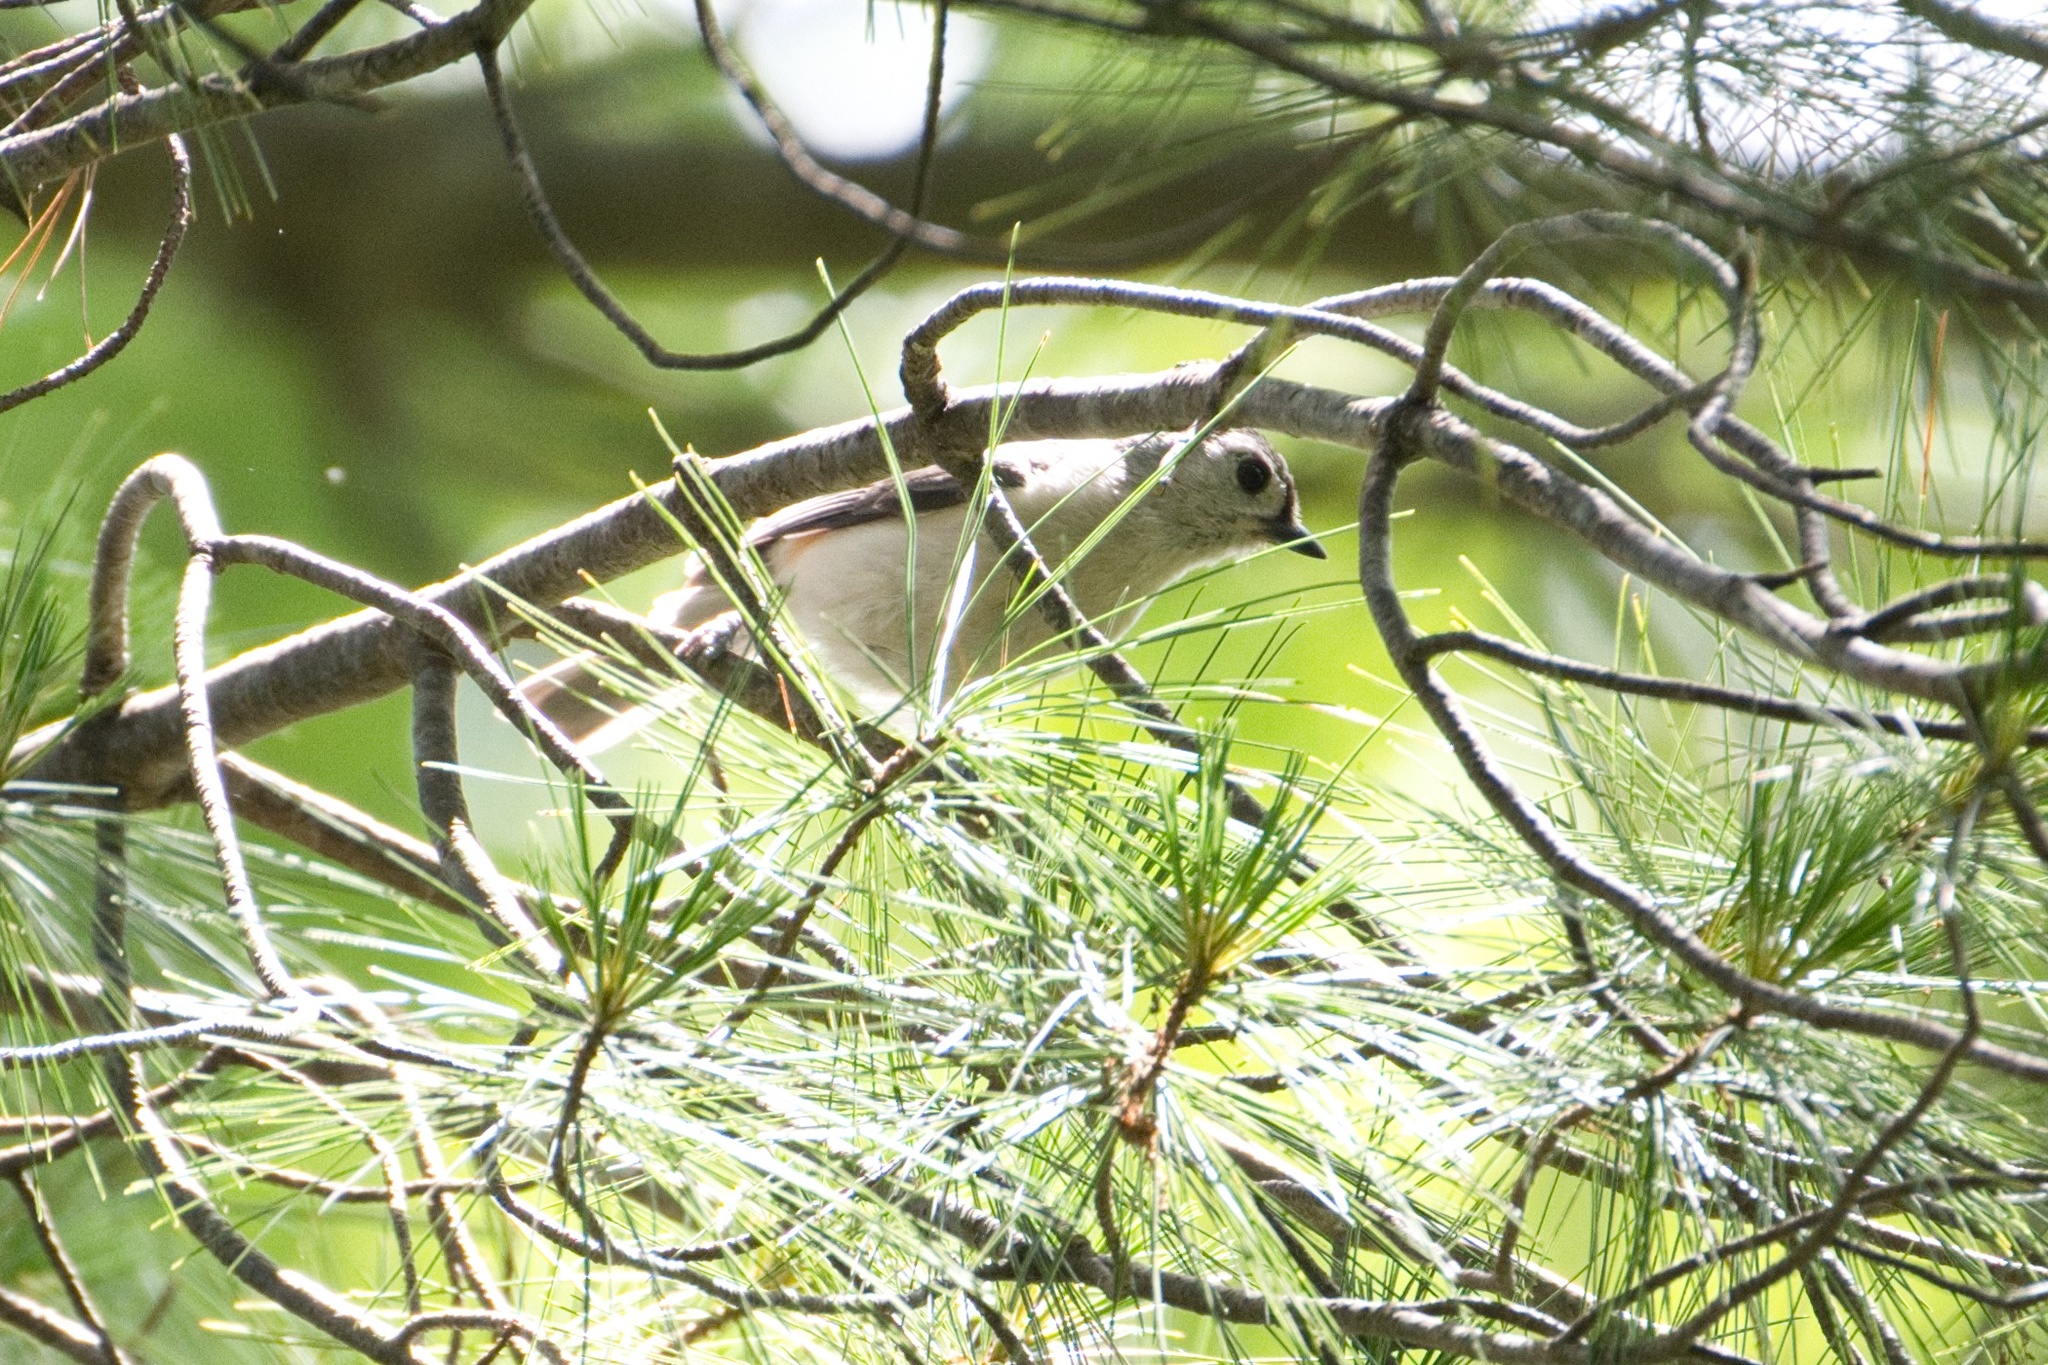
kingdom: Animalia
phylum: Chordata
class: Aves
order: Passeriformes
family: Paridae
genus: Baeolophus
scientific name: Baeolophus bicolor
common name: Tufted titmouse
